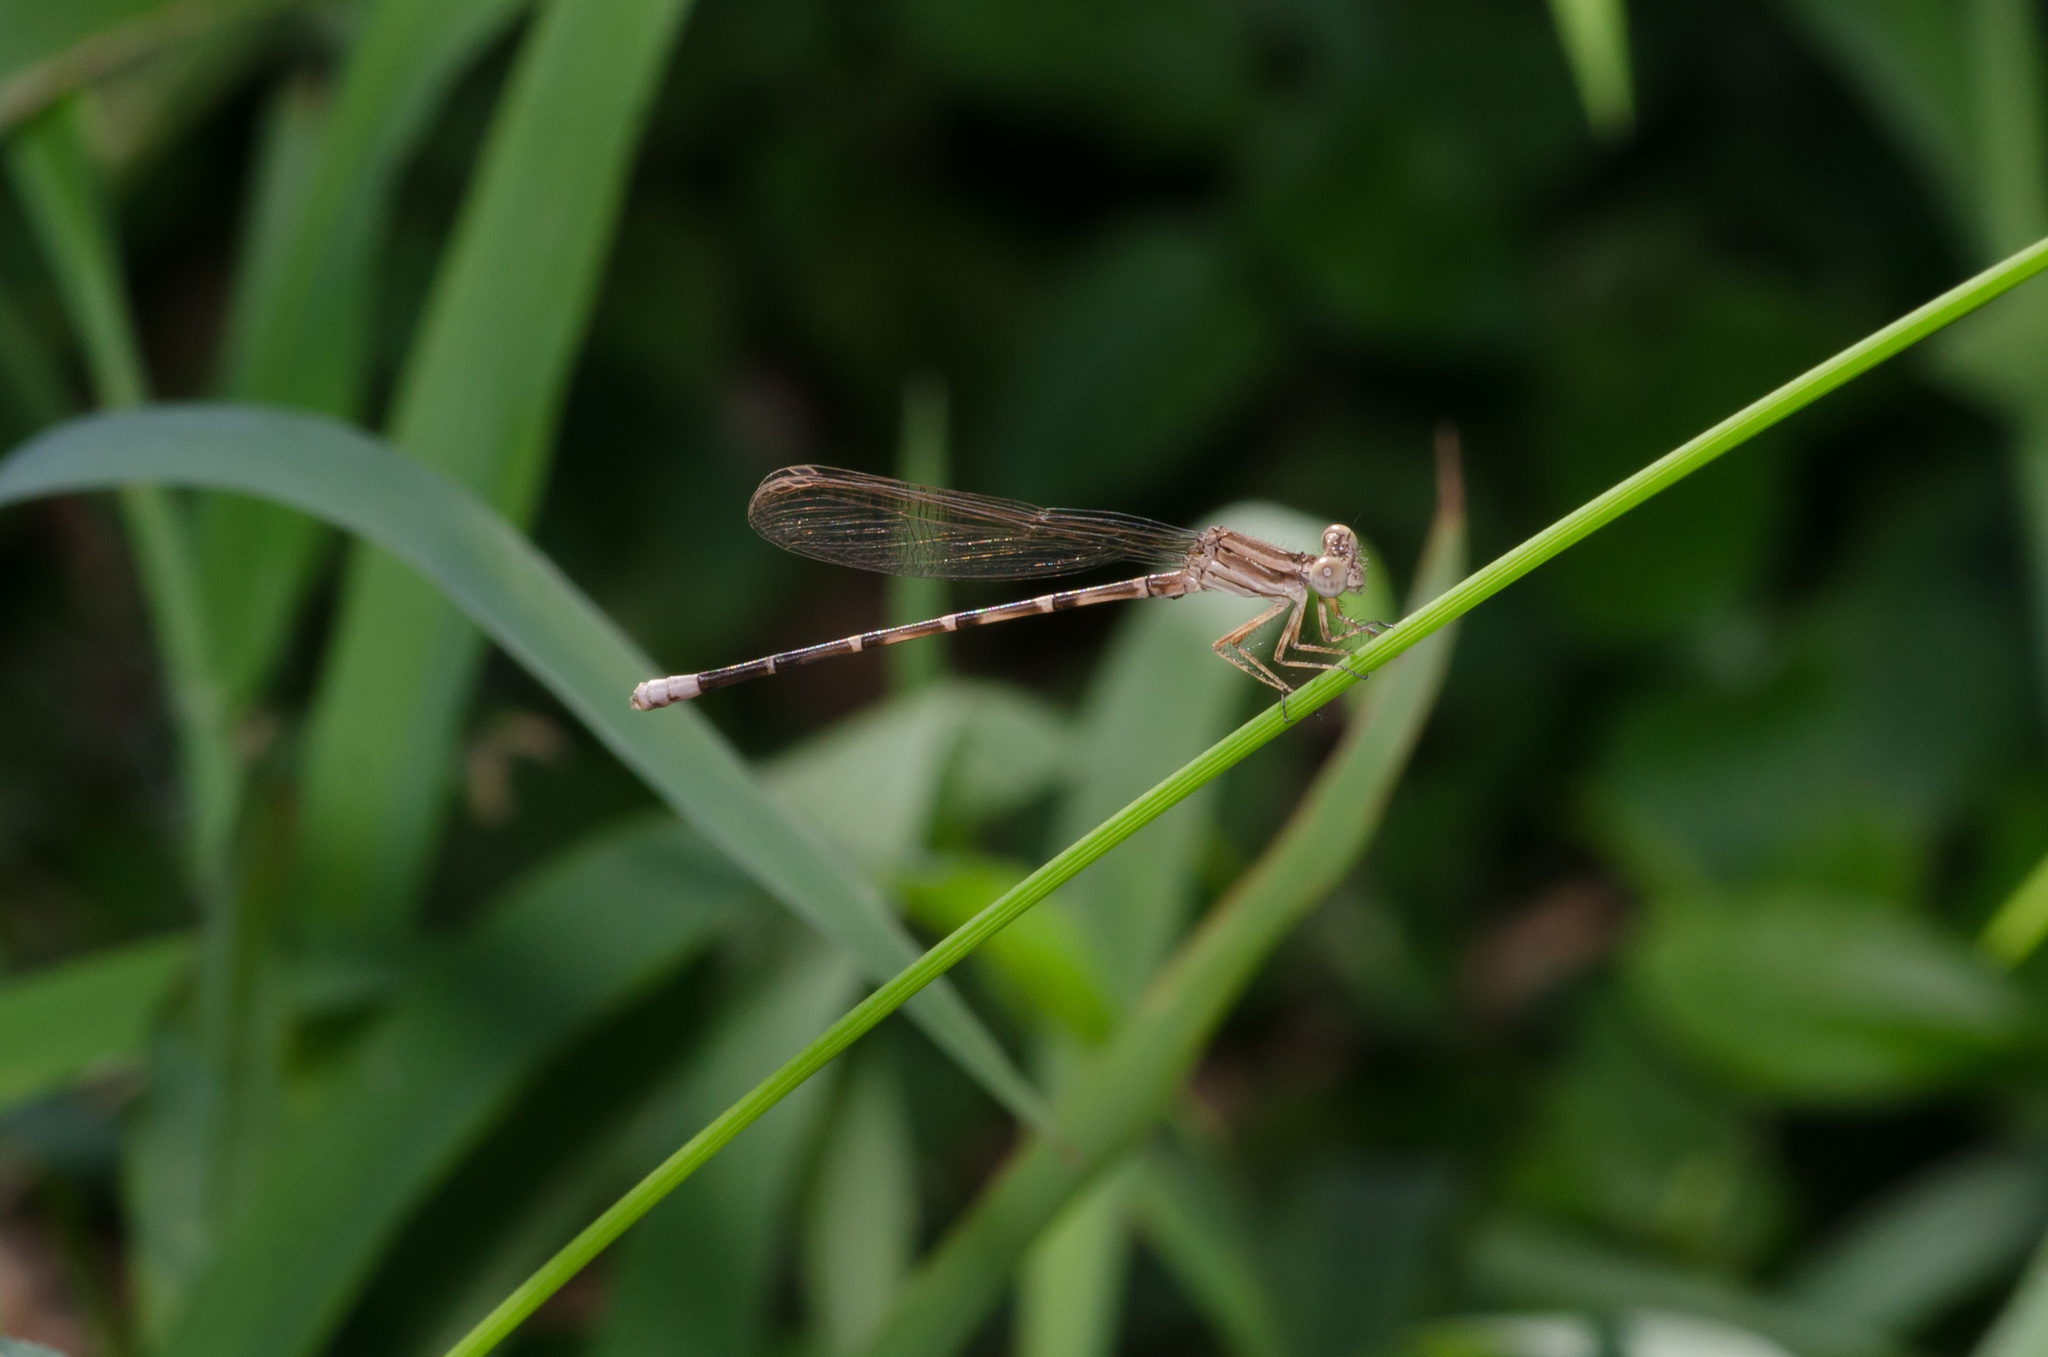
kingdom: Animalia
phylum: Arthropoda
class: Insecta
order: Odonata
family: Coenagrionidae
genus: Argia
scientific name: Argia sedula
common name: Blue-ringed dancer
